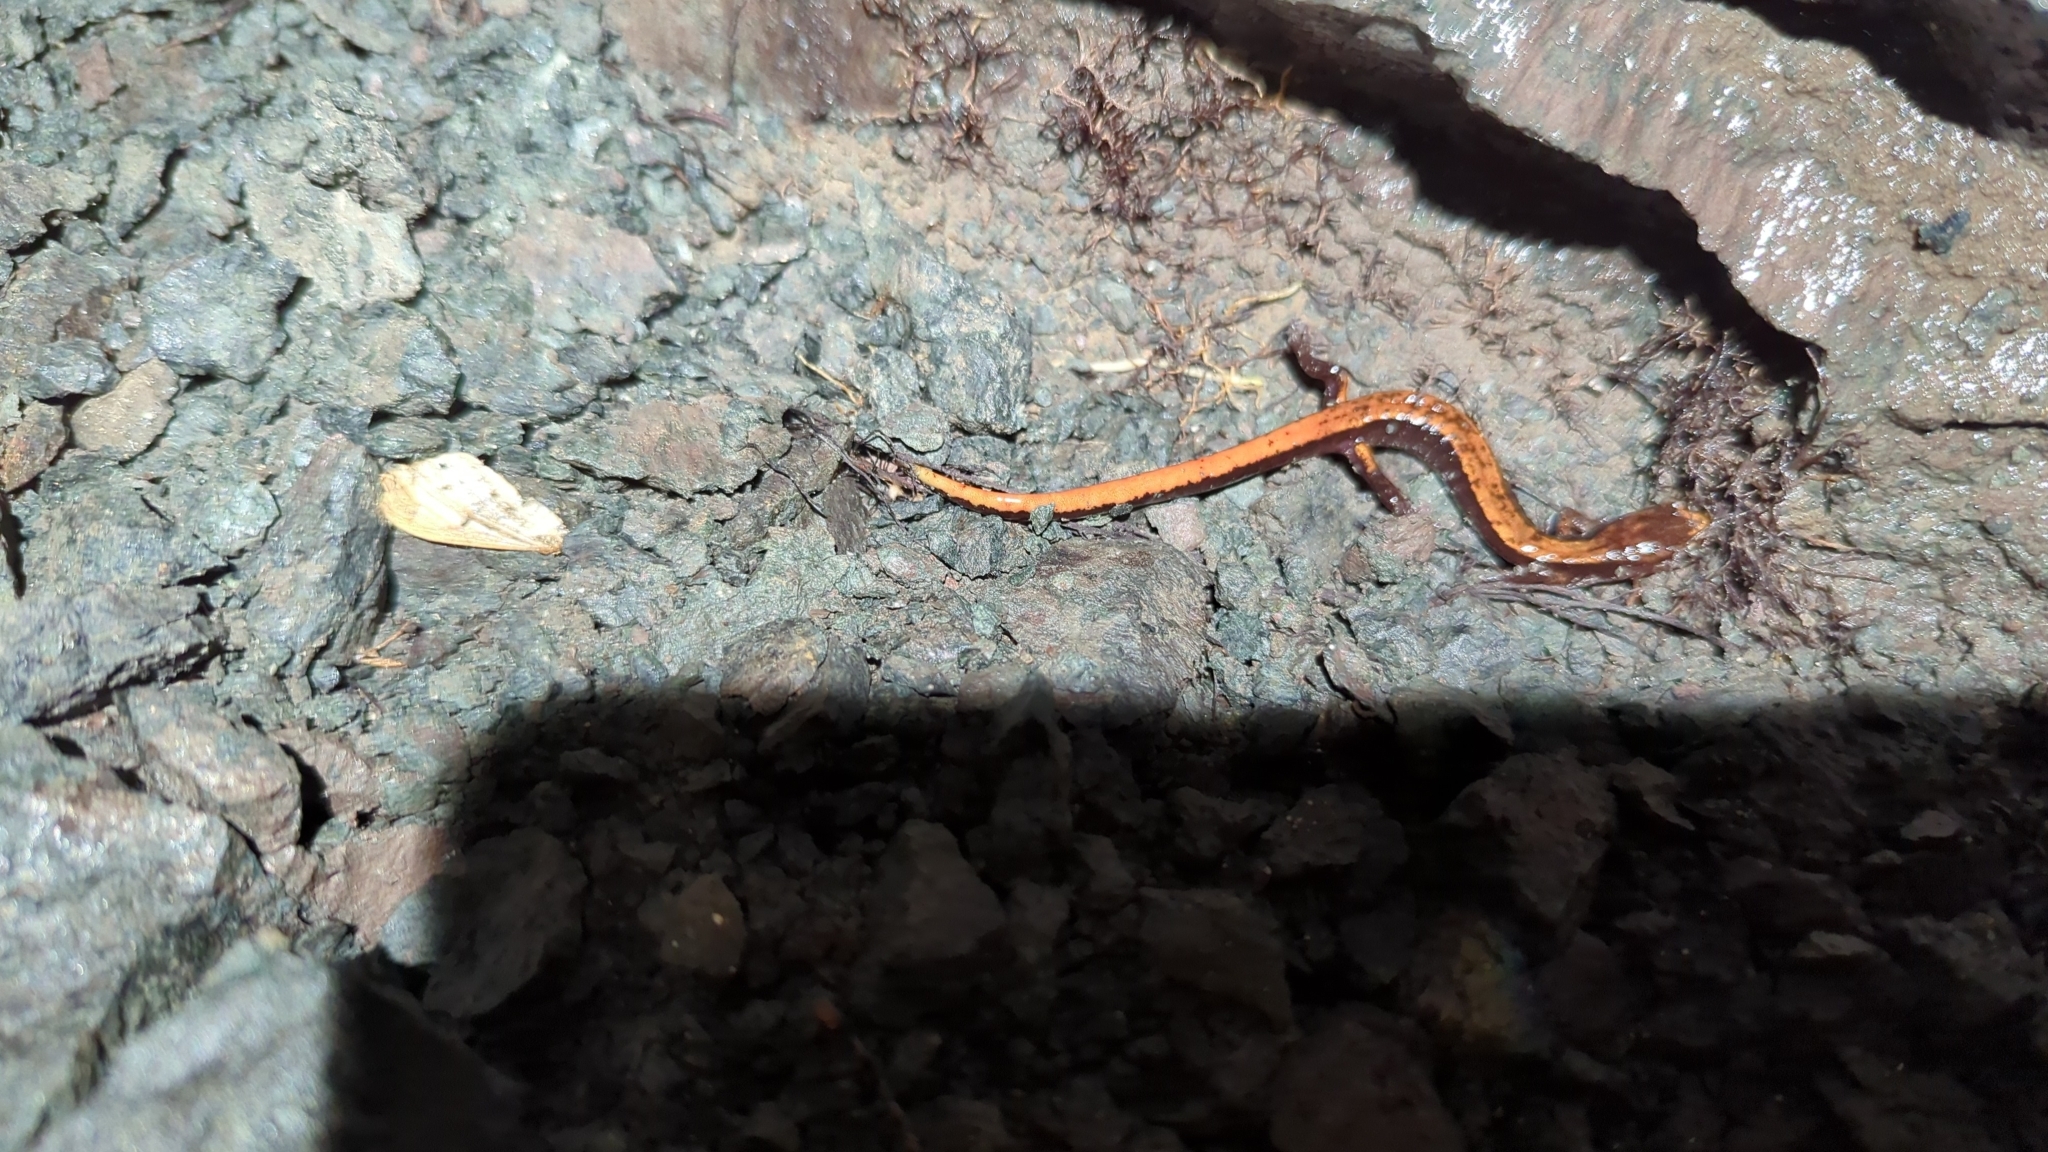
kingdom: Animalia
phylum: Chordata
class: Amphibia
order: Caudata
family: Plethodontidae
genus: Plethodon
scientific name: Plethodon vehiculum
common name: Western red-backed salamander
